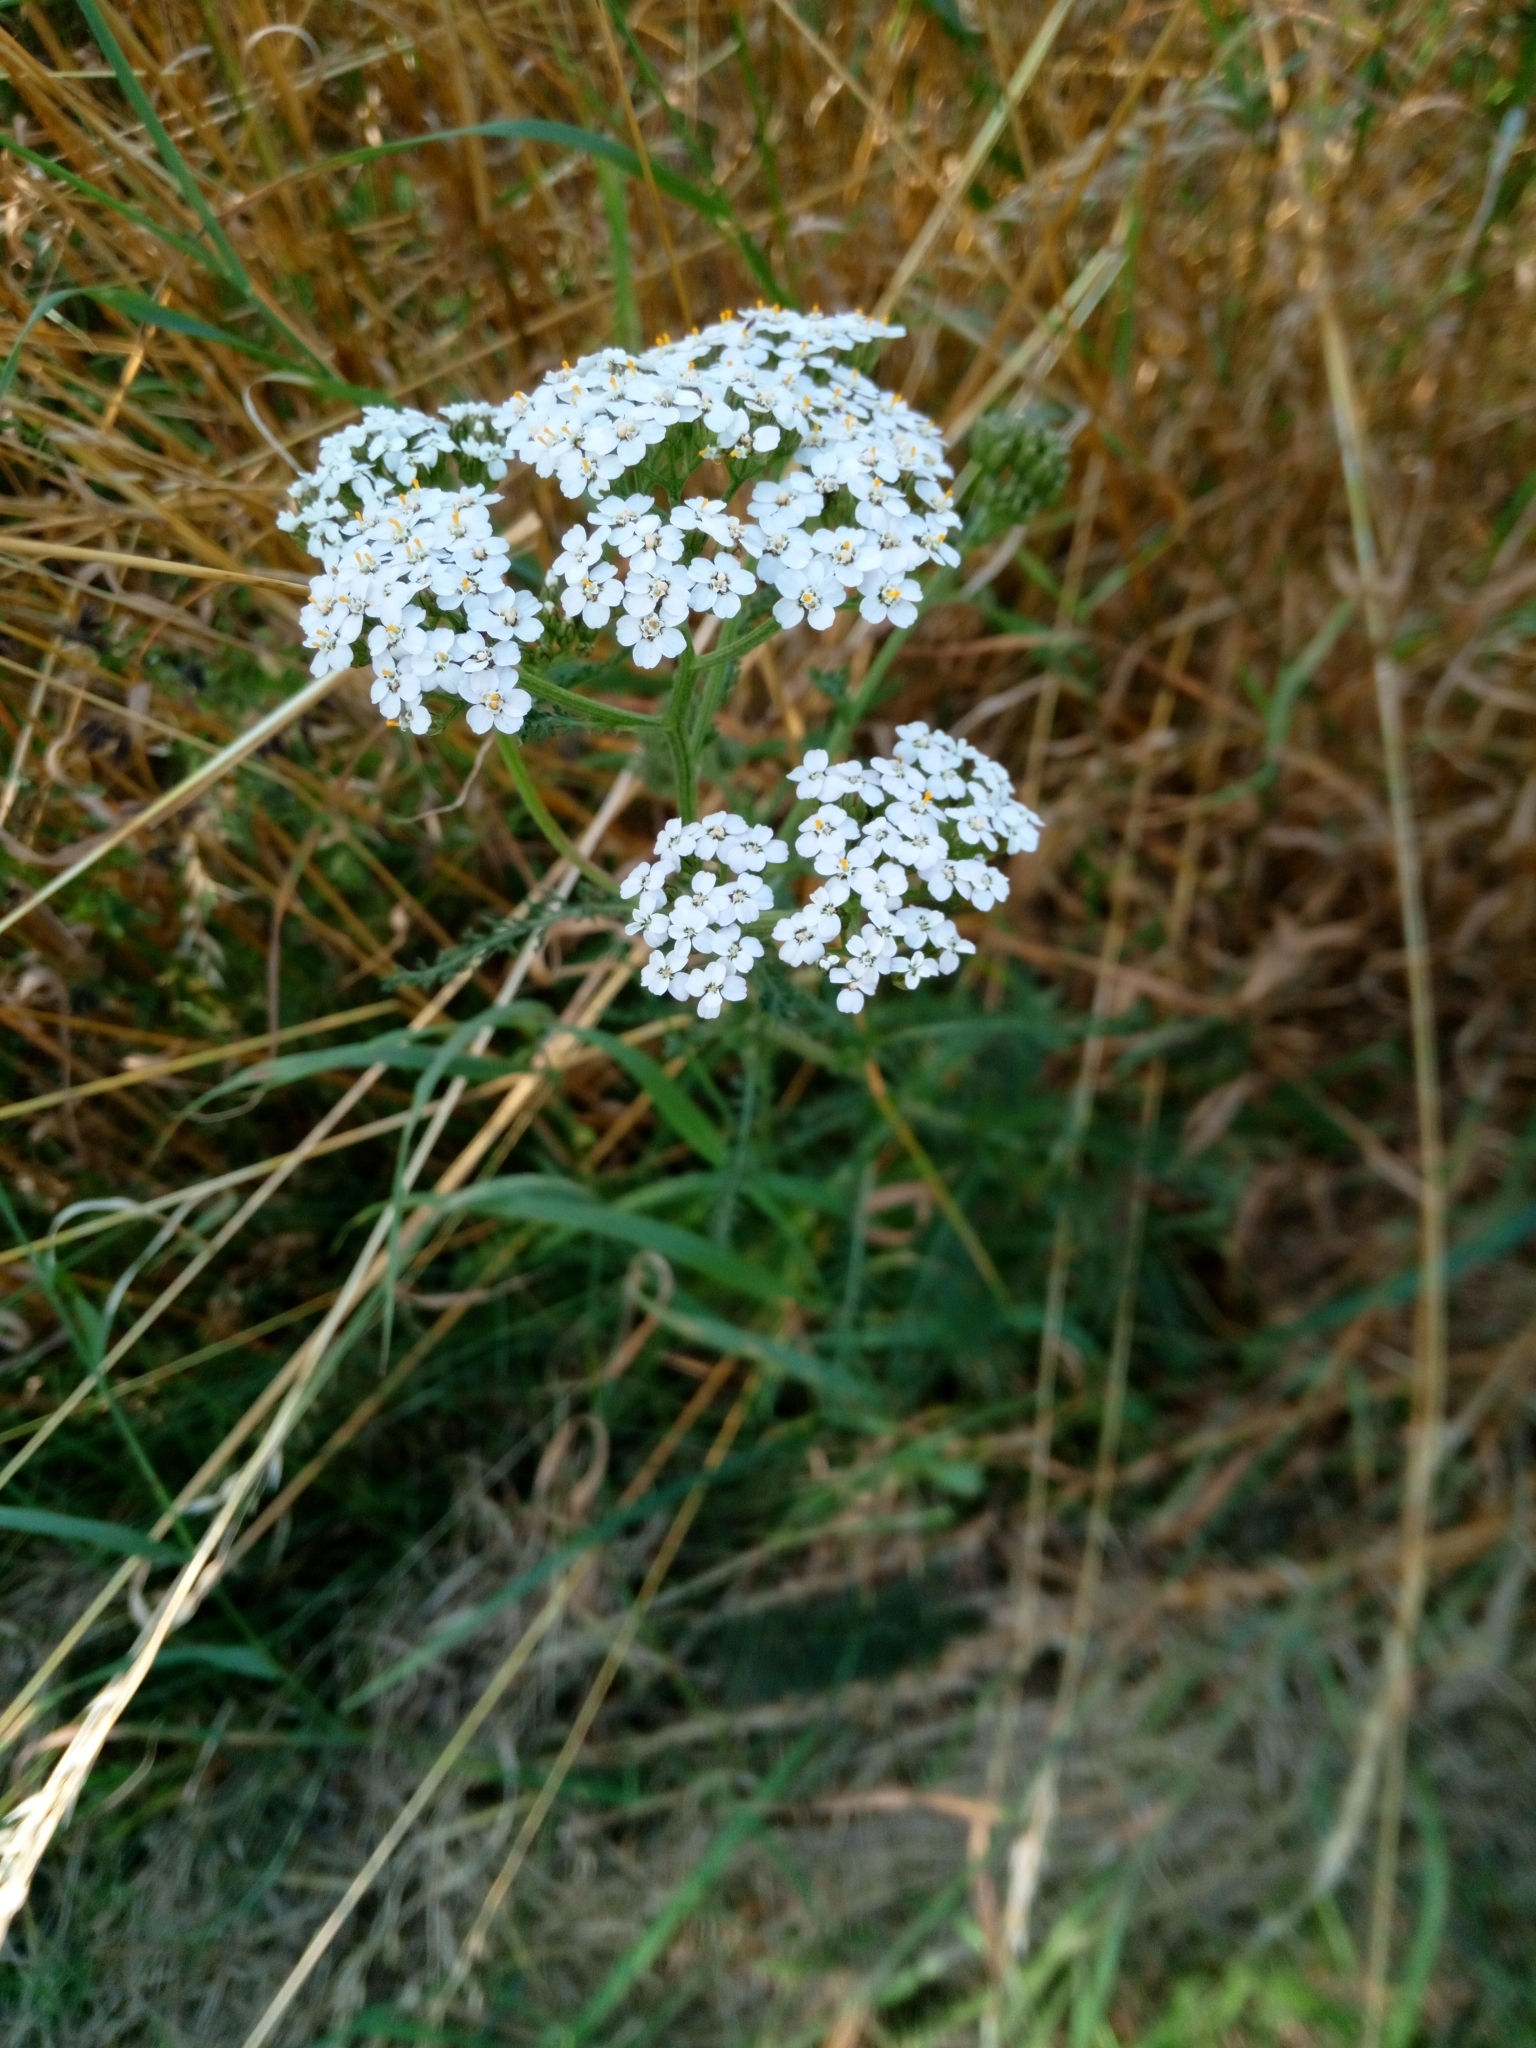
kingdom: Plantae
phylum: Tracheophyta
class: Magnoliopsida
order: Asterales
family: Asteraceae
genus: Achillea
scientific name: Achillea millefolium
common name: Yarrow
